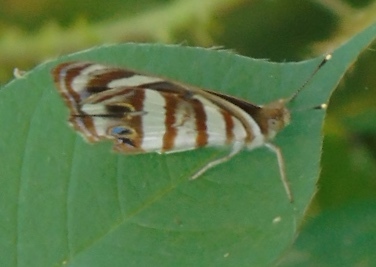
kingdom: Animalia
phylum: Arthropoda
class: Insecta
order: Lepidoptera
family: Nymphalidae
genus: Dynamine
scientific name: Dynamine mylitta
